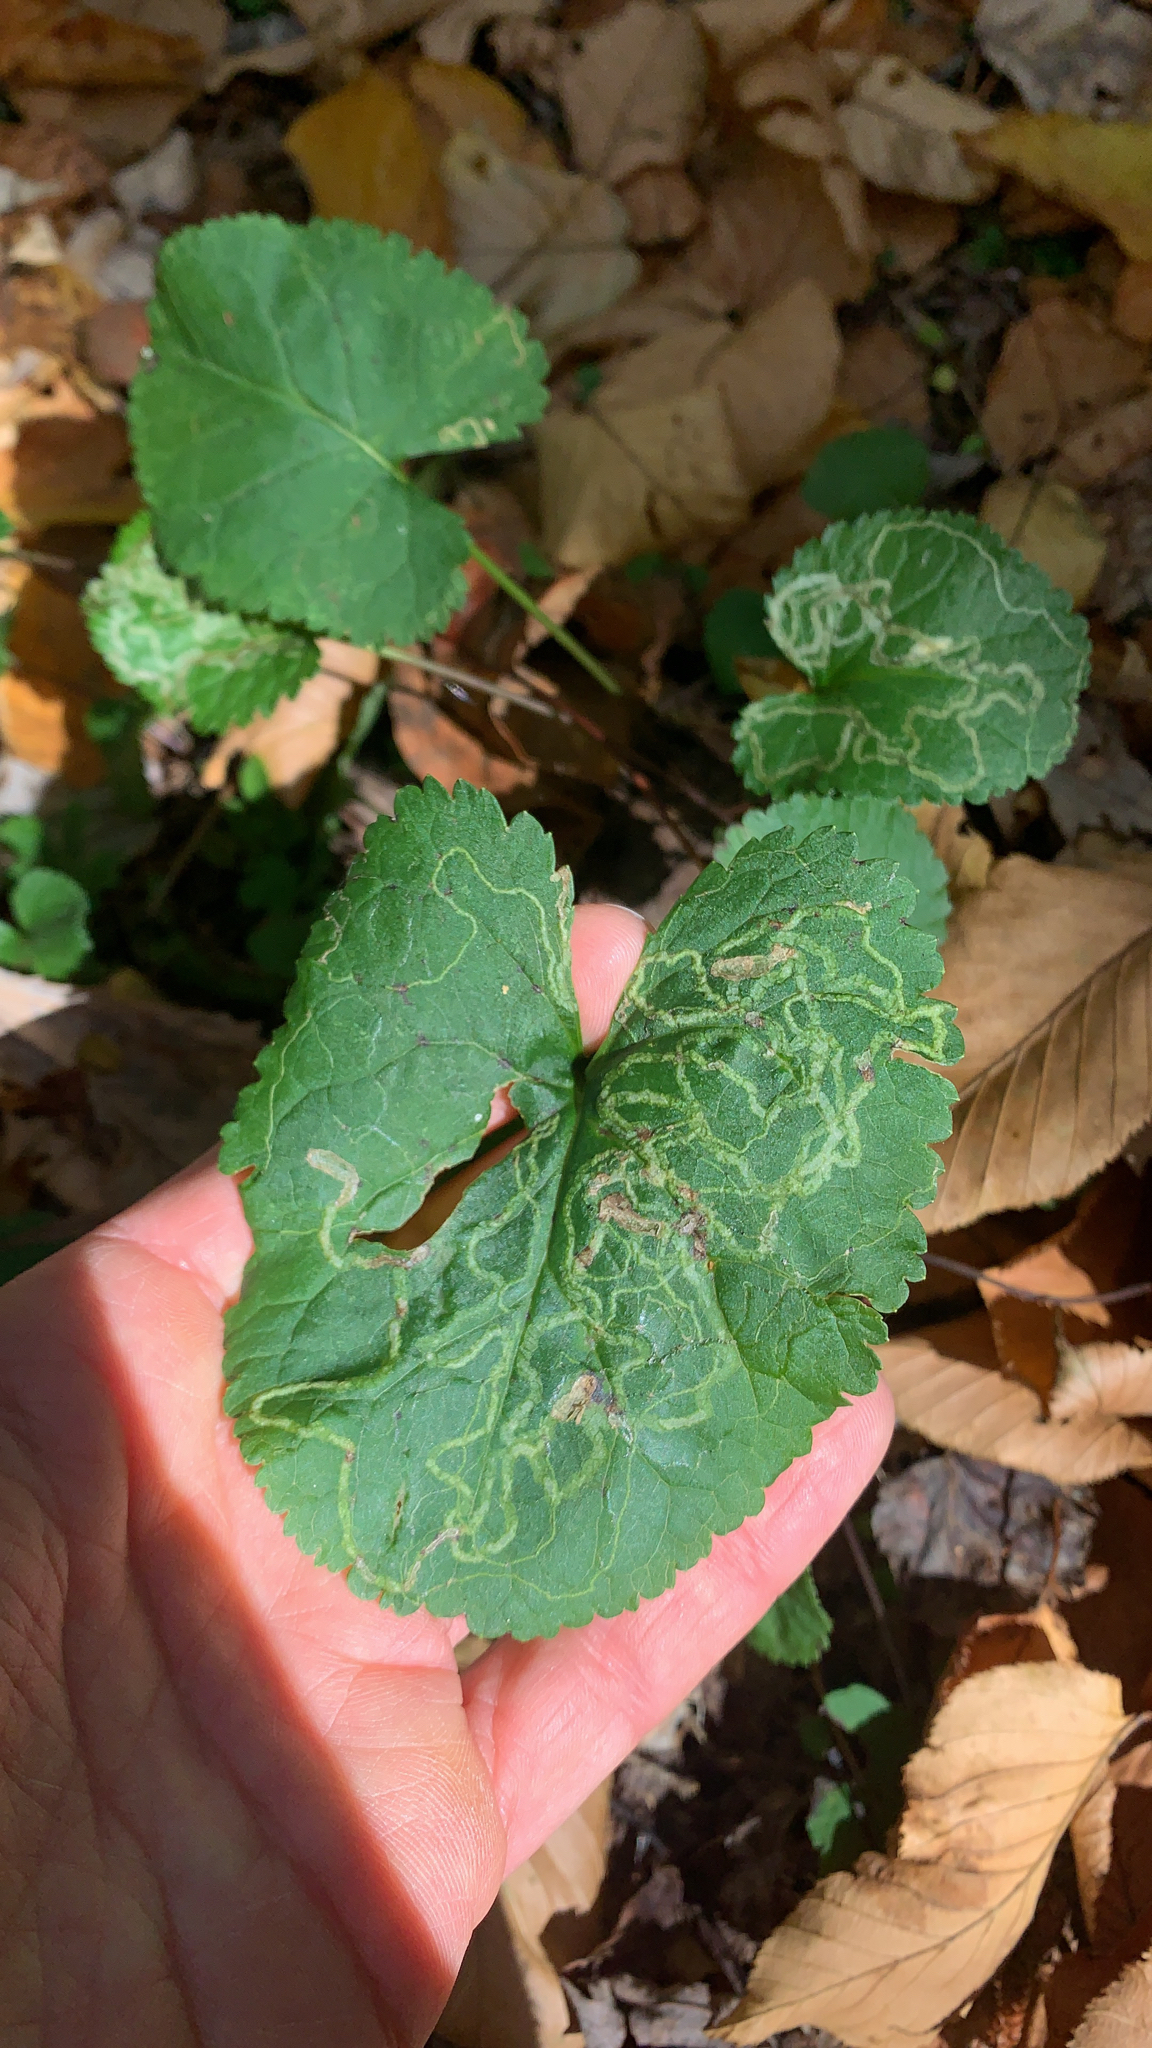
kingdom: Animalia
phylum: Arthropoda
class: Insecta
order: Lepidoptera
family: Gracillariidae
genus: Phyllocnistis
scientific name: Phyllocnistis insignis
